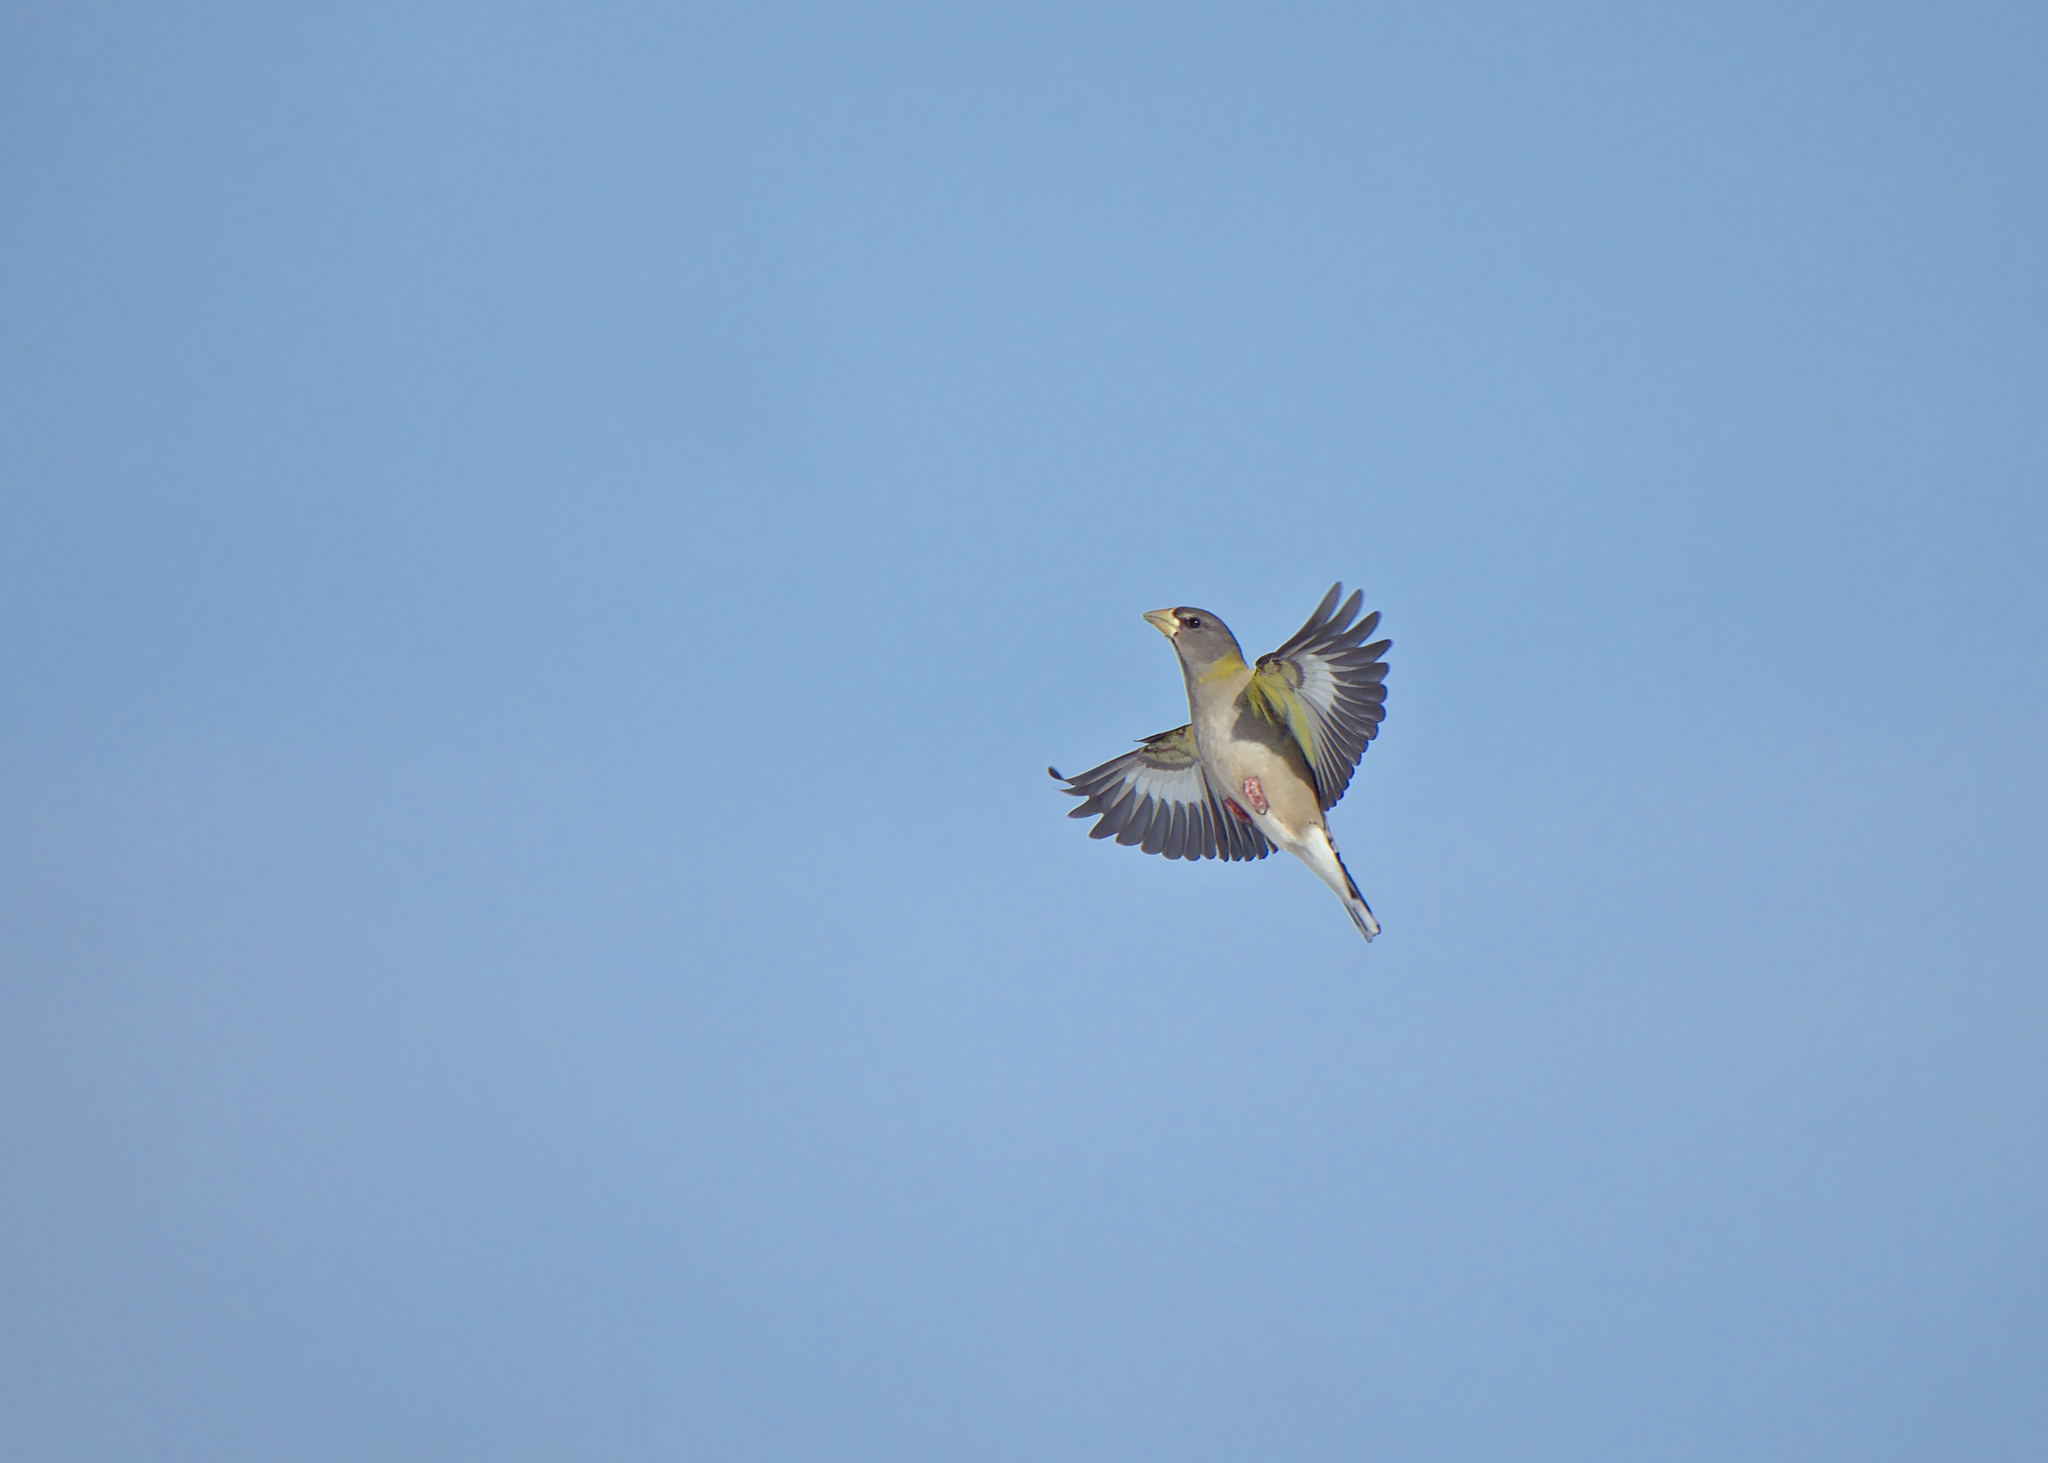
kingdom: Animalia
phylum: Chordata
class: Aves
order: Passeriformes
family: Fringillidae
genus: Hesperiphona
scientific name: Hesperiphona vespertina
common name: Evening grosbeak
